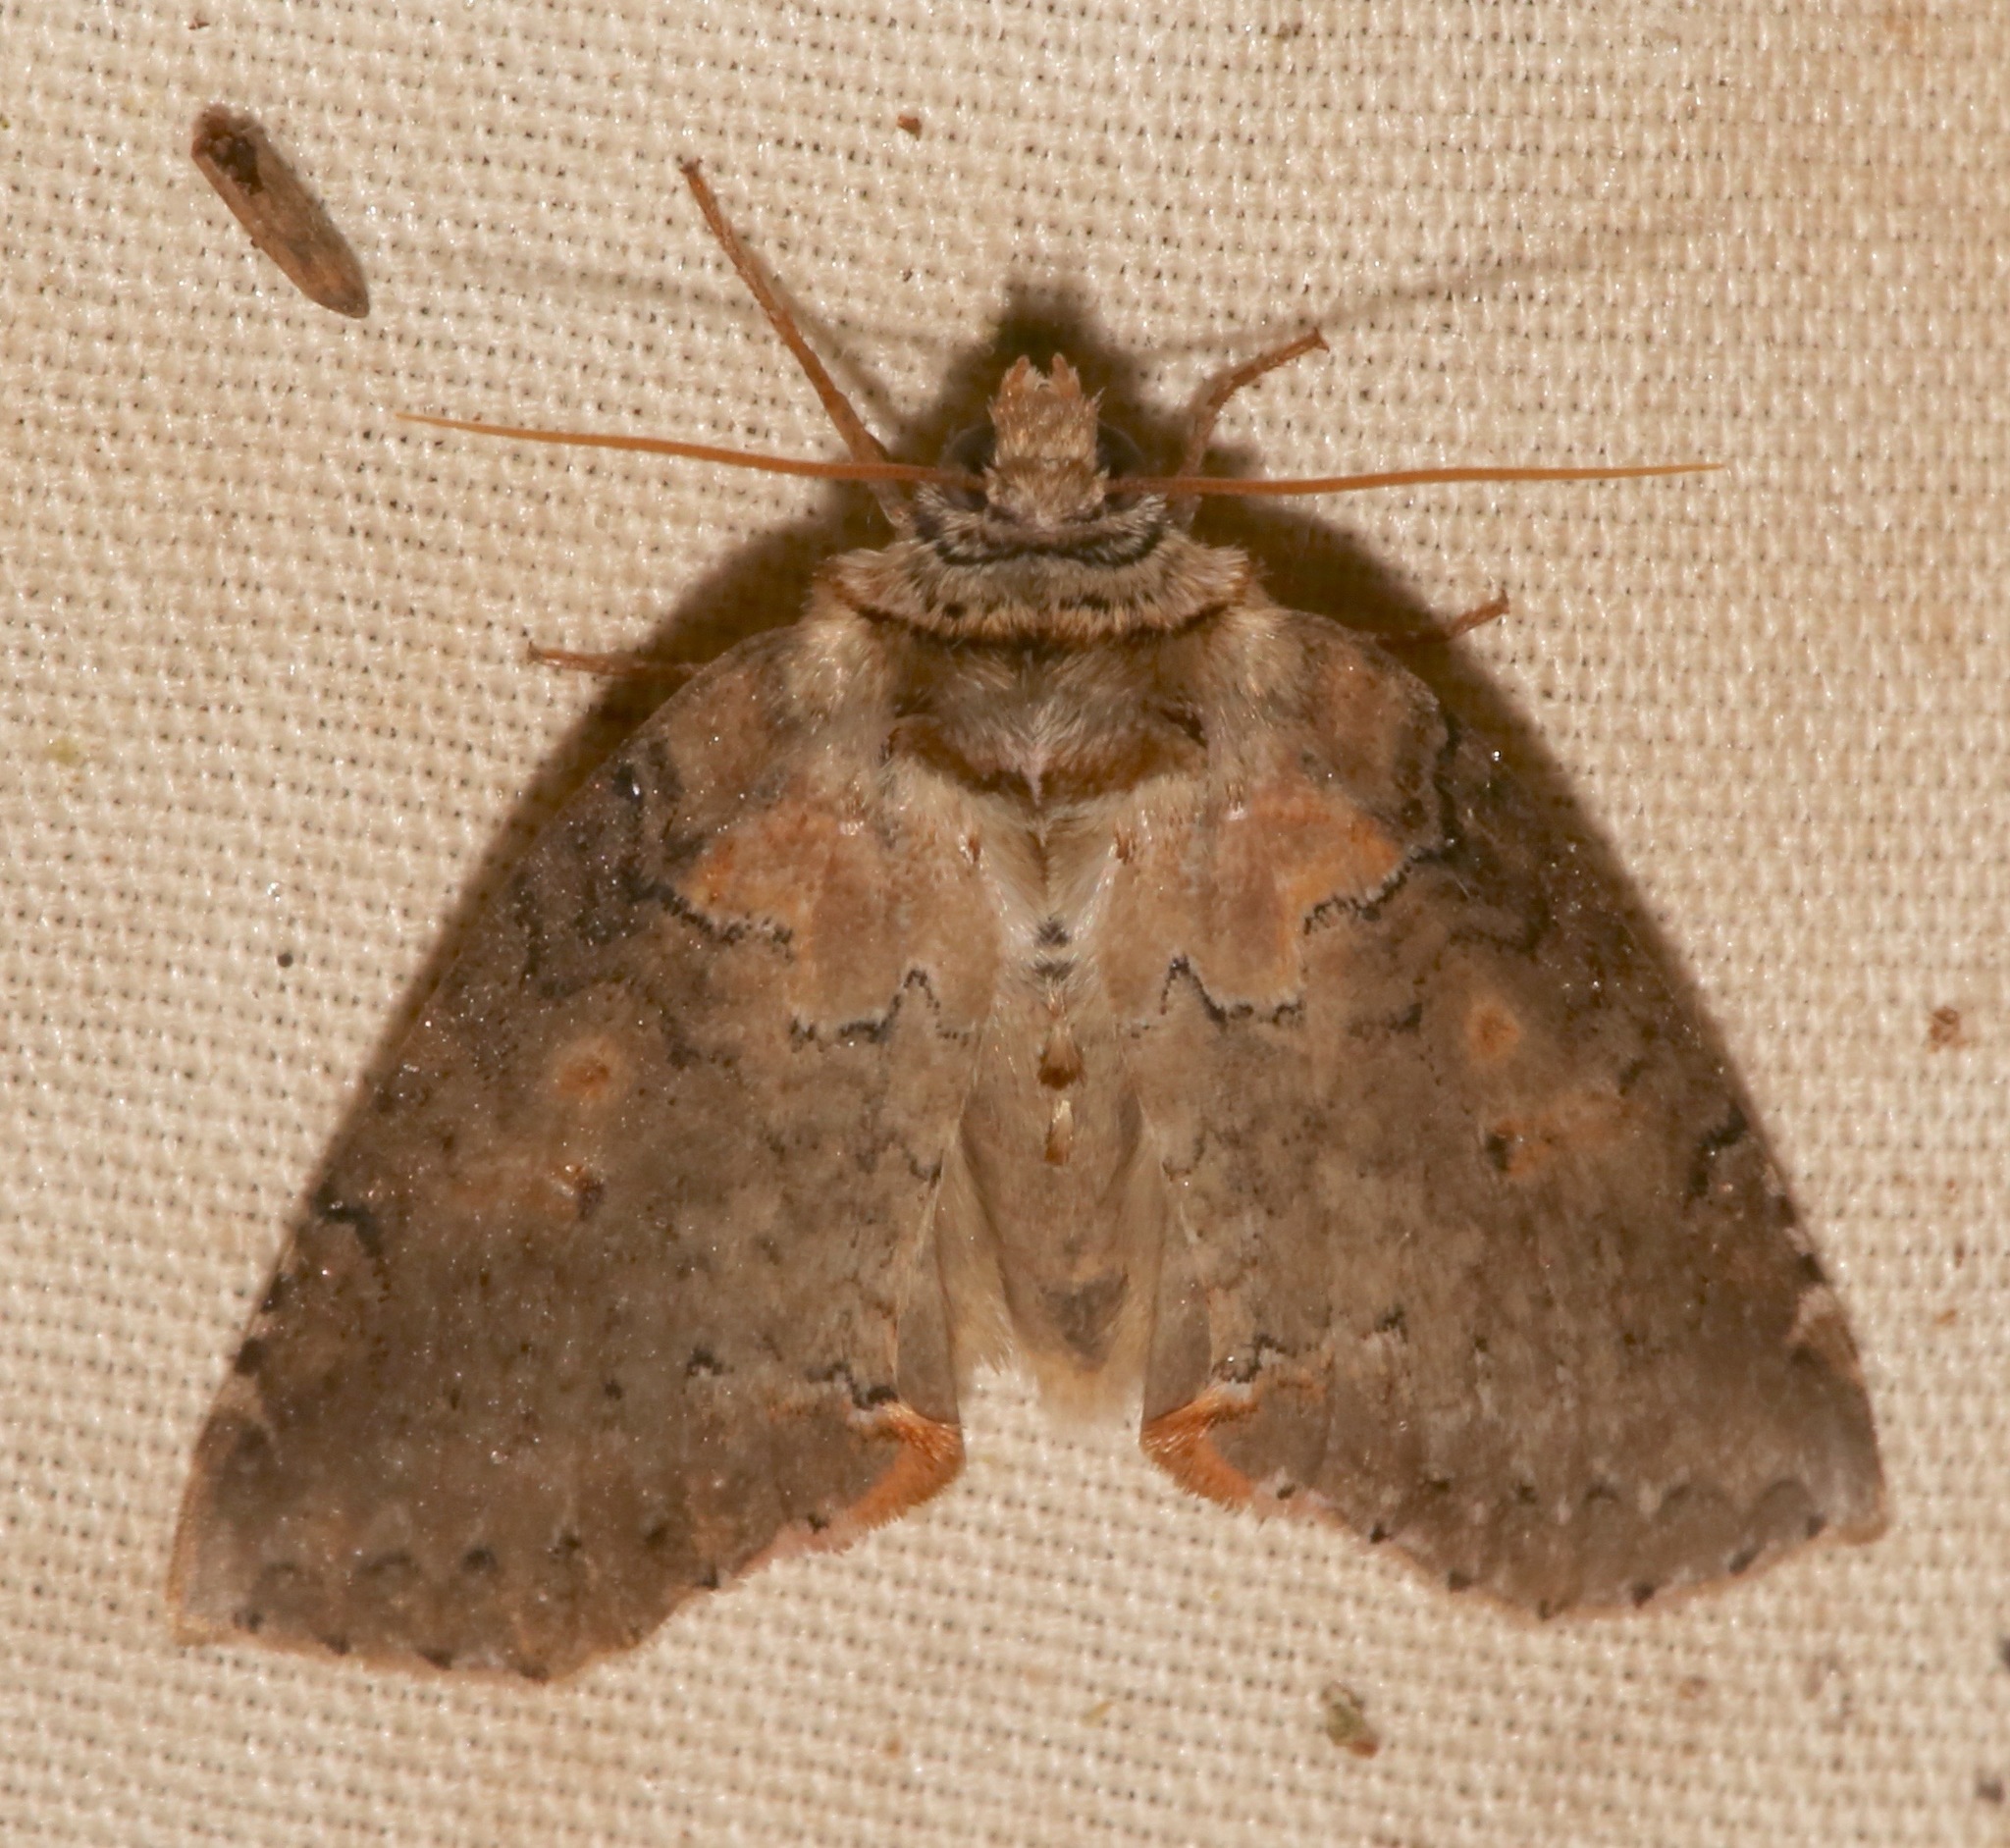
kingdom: Animalia
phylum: Arthropoda
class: Insecta
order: Lepidoptera
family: Drepanidae
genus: Pseudothyatira
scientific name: Pseudothyatira cymatophoroides
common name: Tufted thyatirid moth
